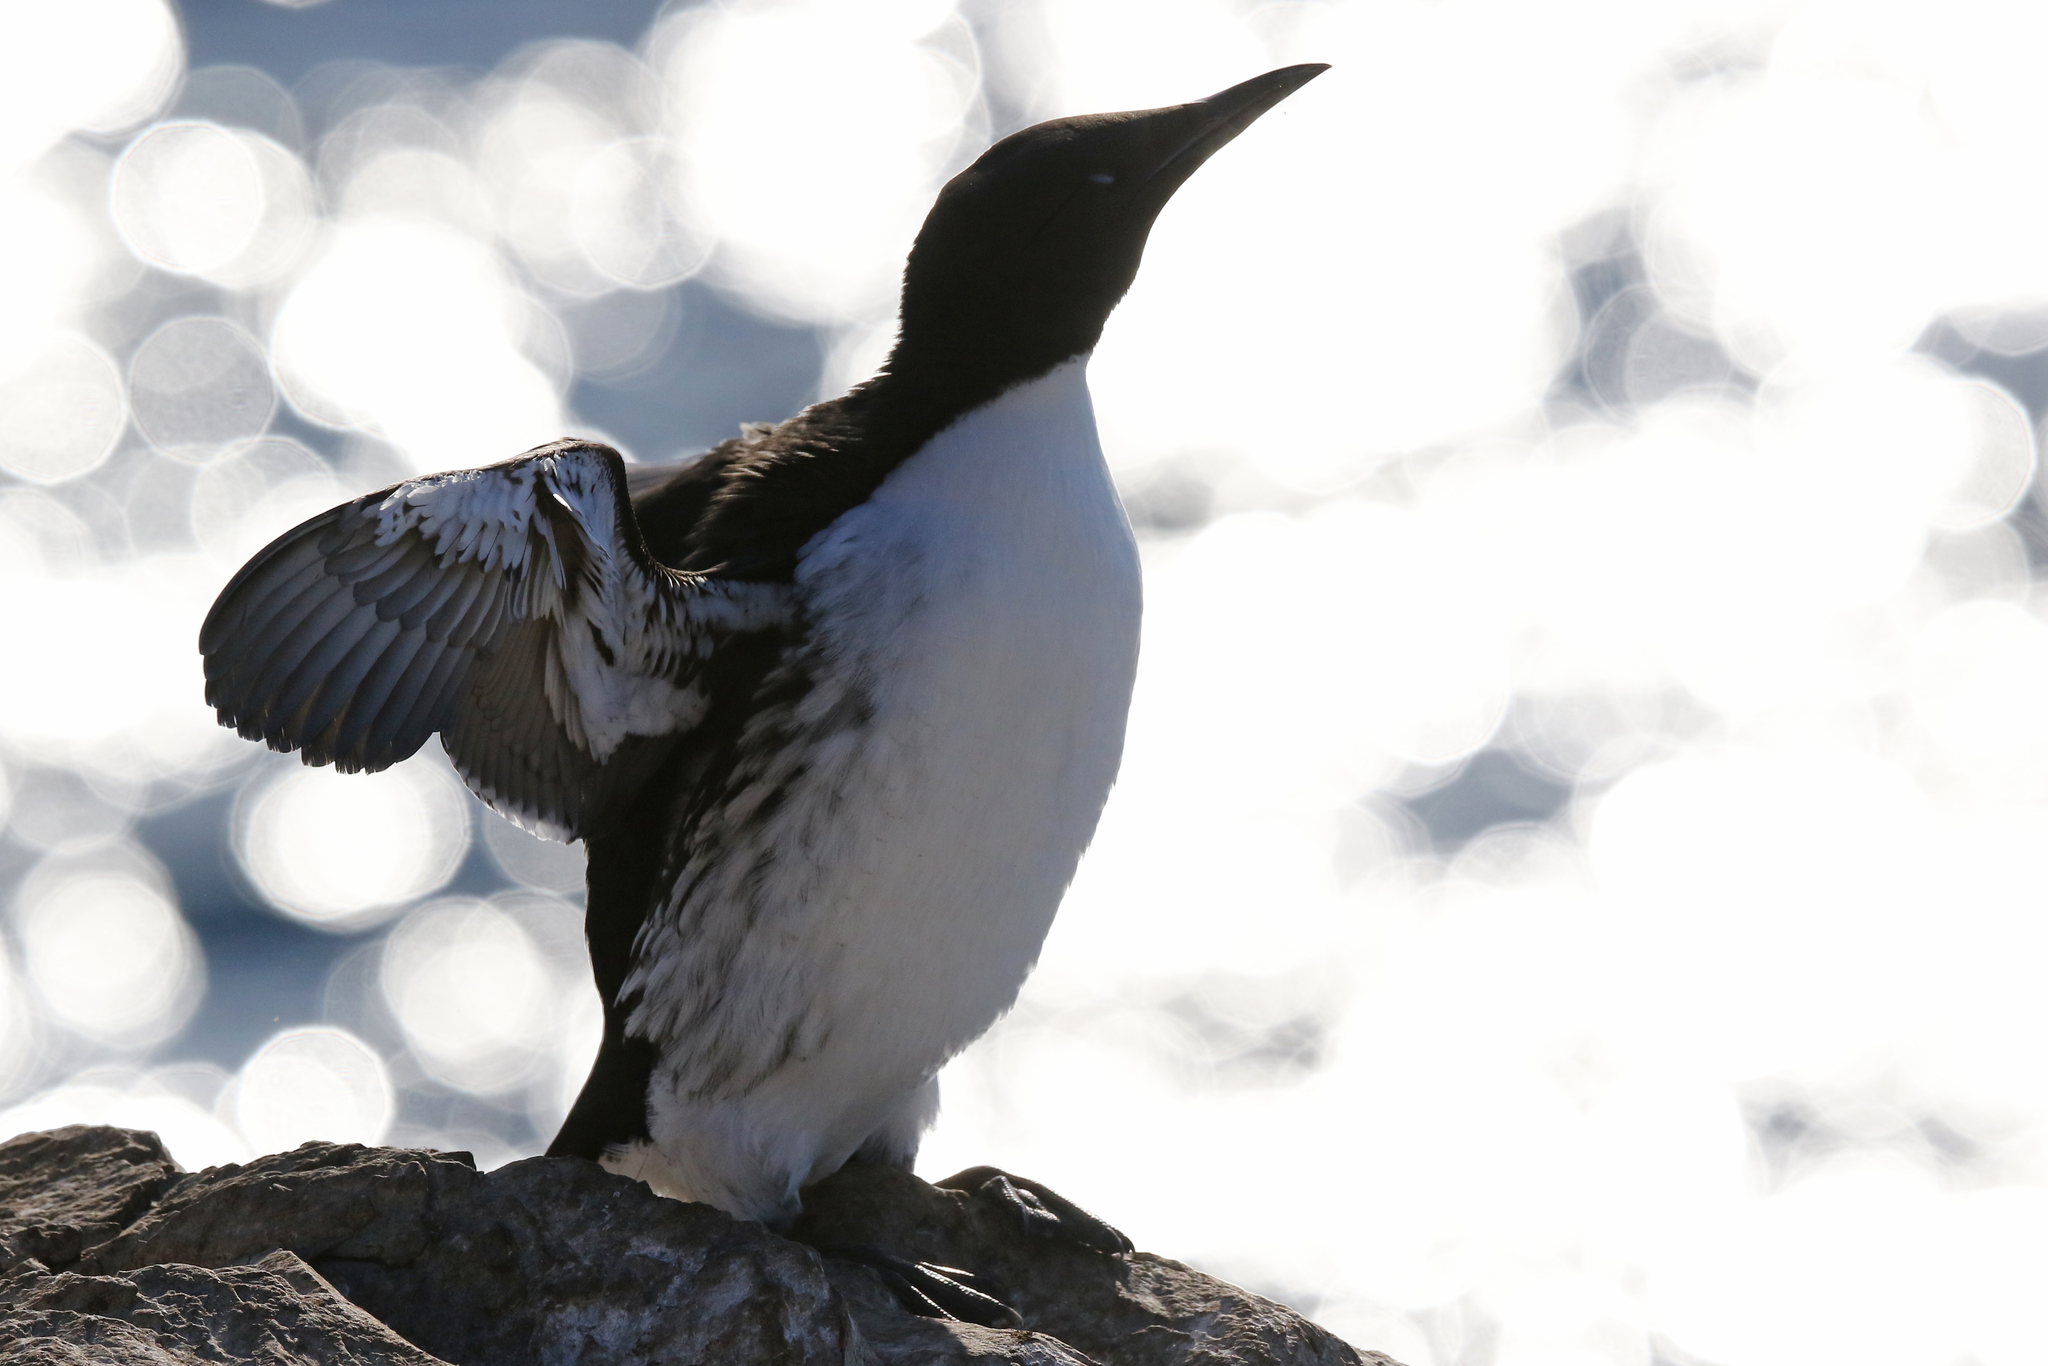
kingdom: Animalia
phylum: Chordata
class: Aves
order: Charadriiformes
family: Alcidae
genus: Uria
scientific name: Uria aalge
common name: Common murre
